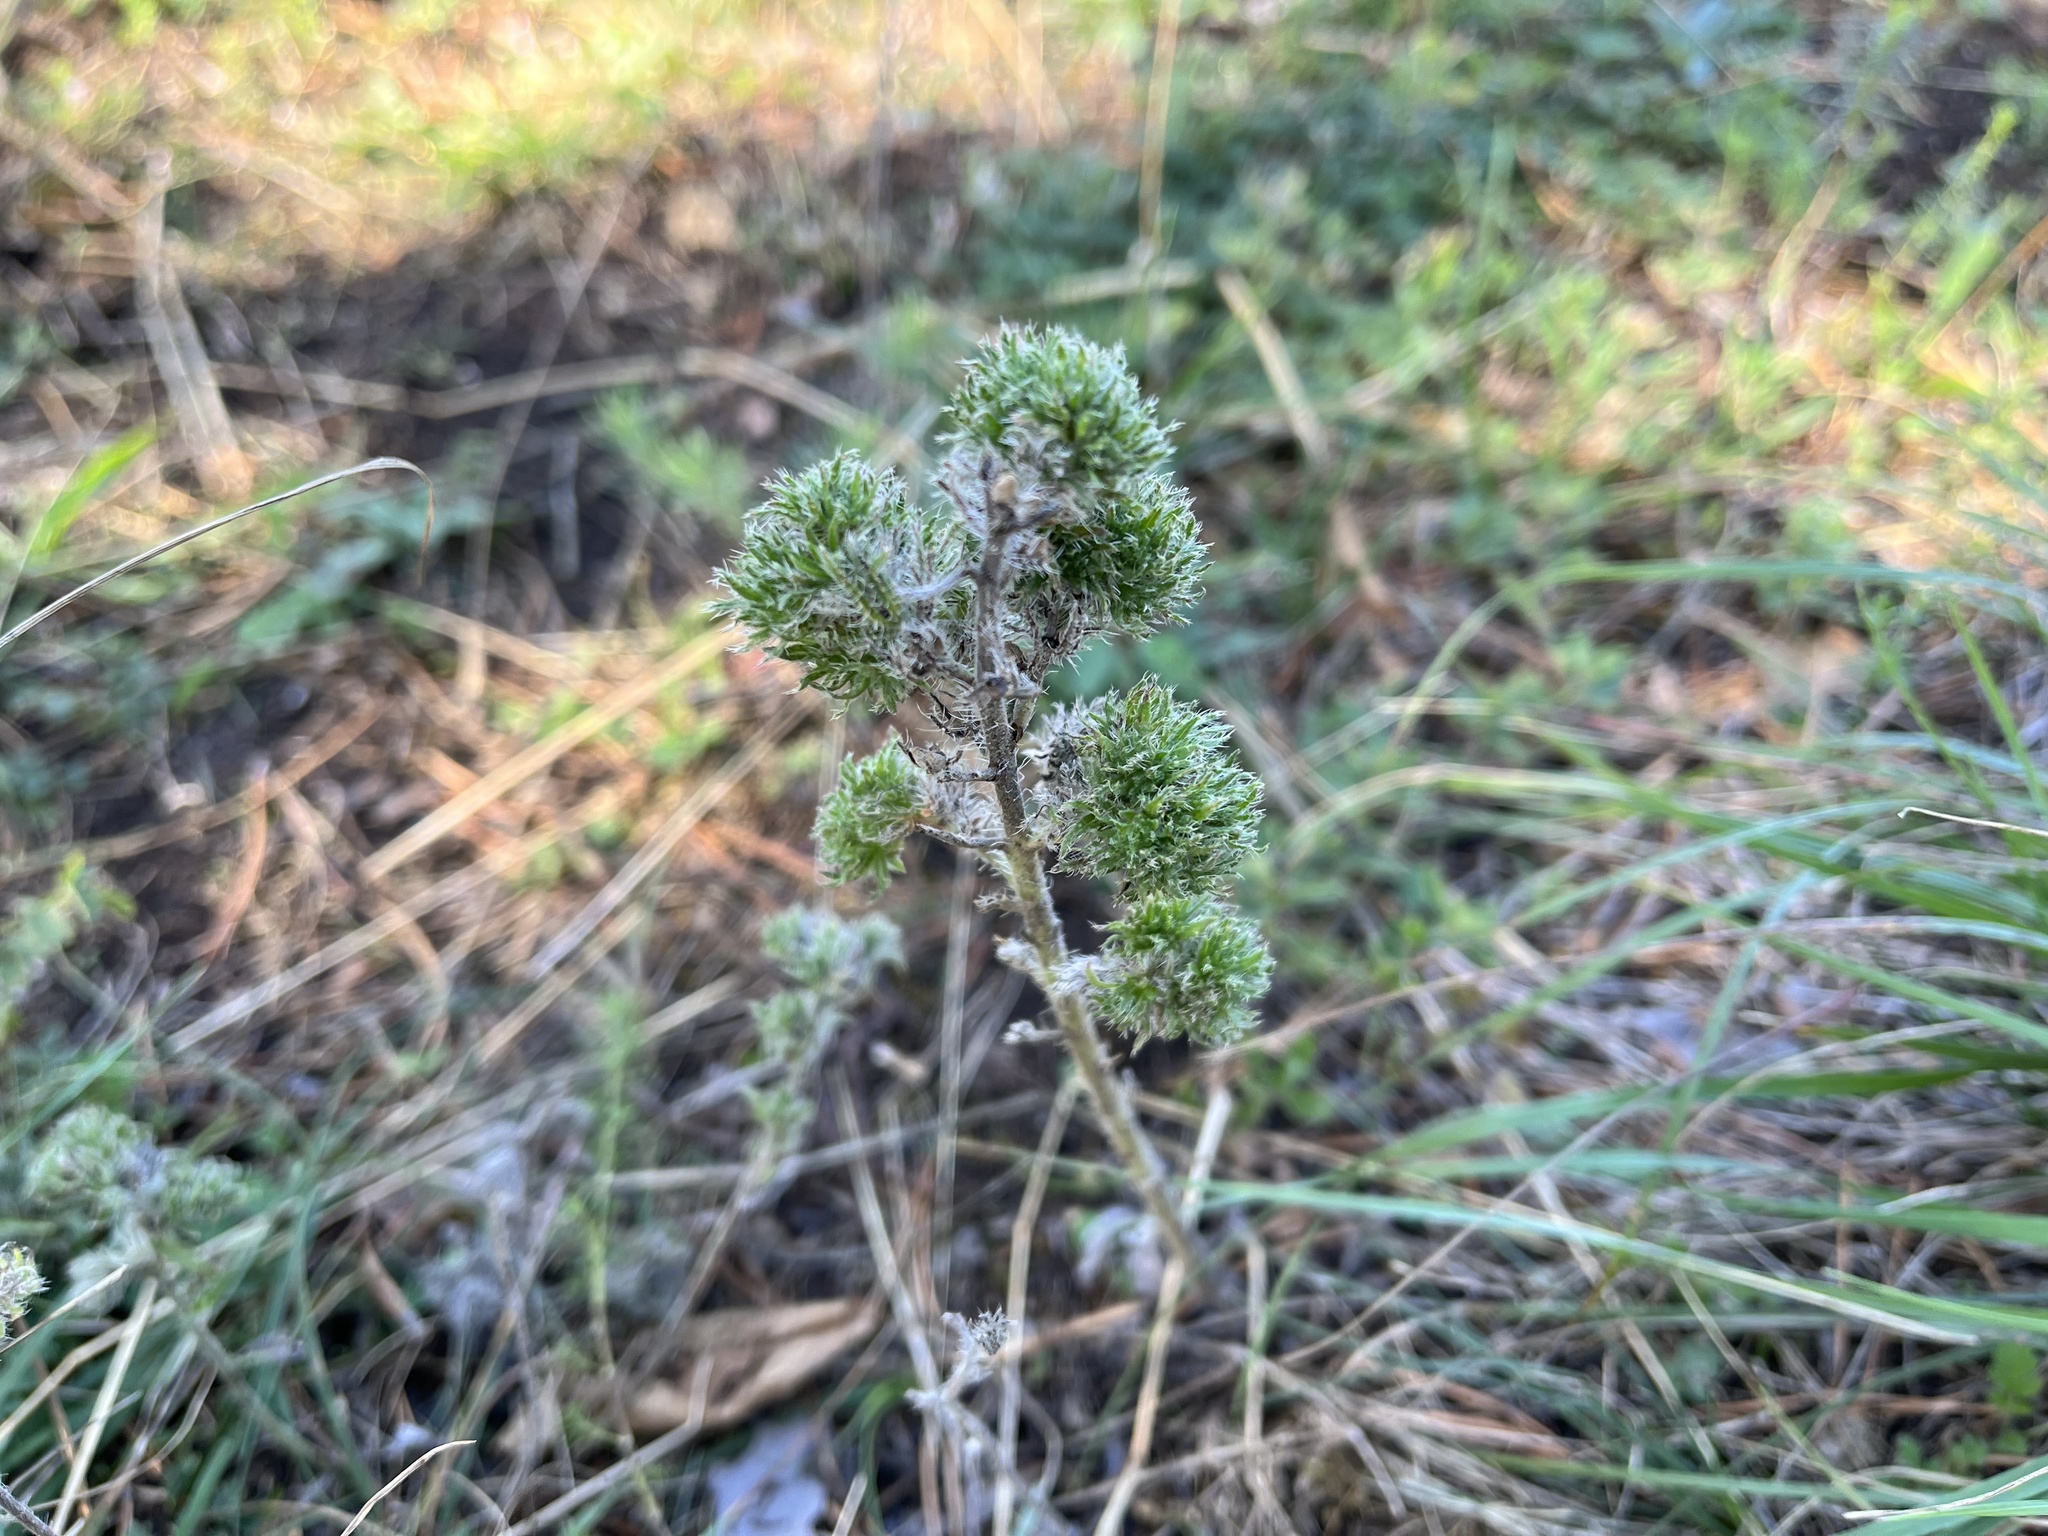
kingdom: Animalia
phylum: Arthropoda
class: Arachnida
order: Trombidiformes
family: Eriophyidae
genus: Aceria
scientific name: Aceria echii
